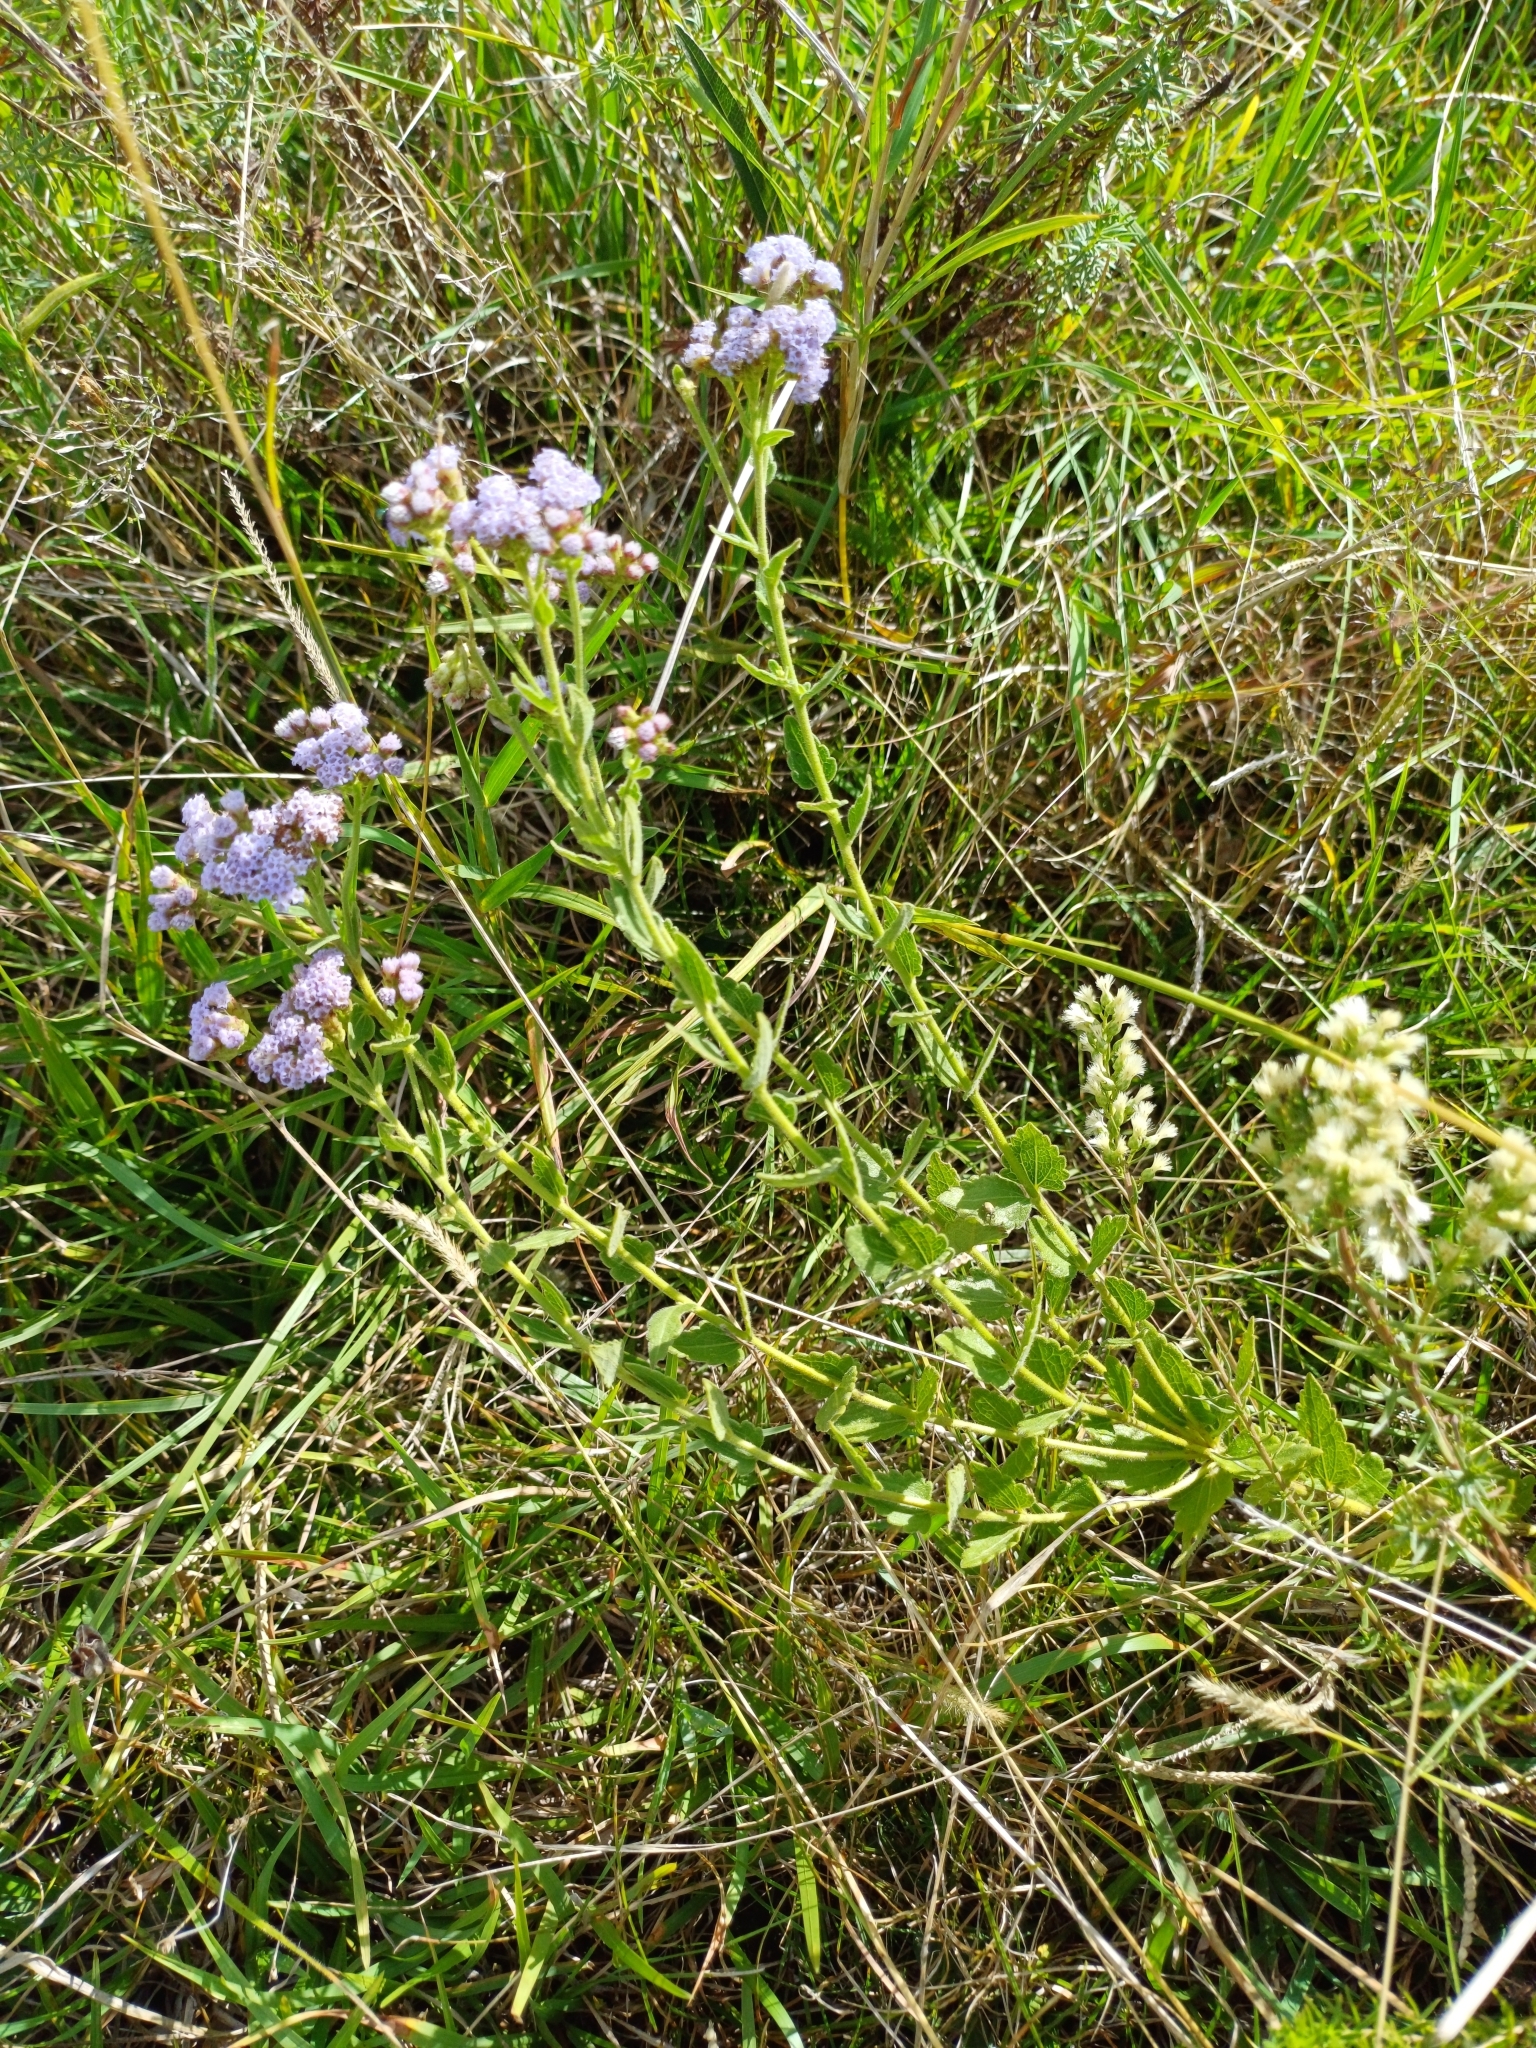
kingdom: Plantae
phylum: Tracheophyta
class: Magnoliopsida
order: Asterales
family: Asteraceae
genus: Chromolaena
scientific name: Chromolaena hirsuta
